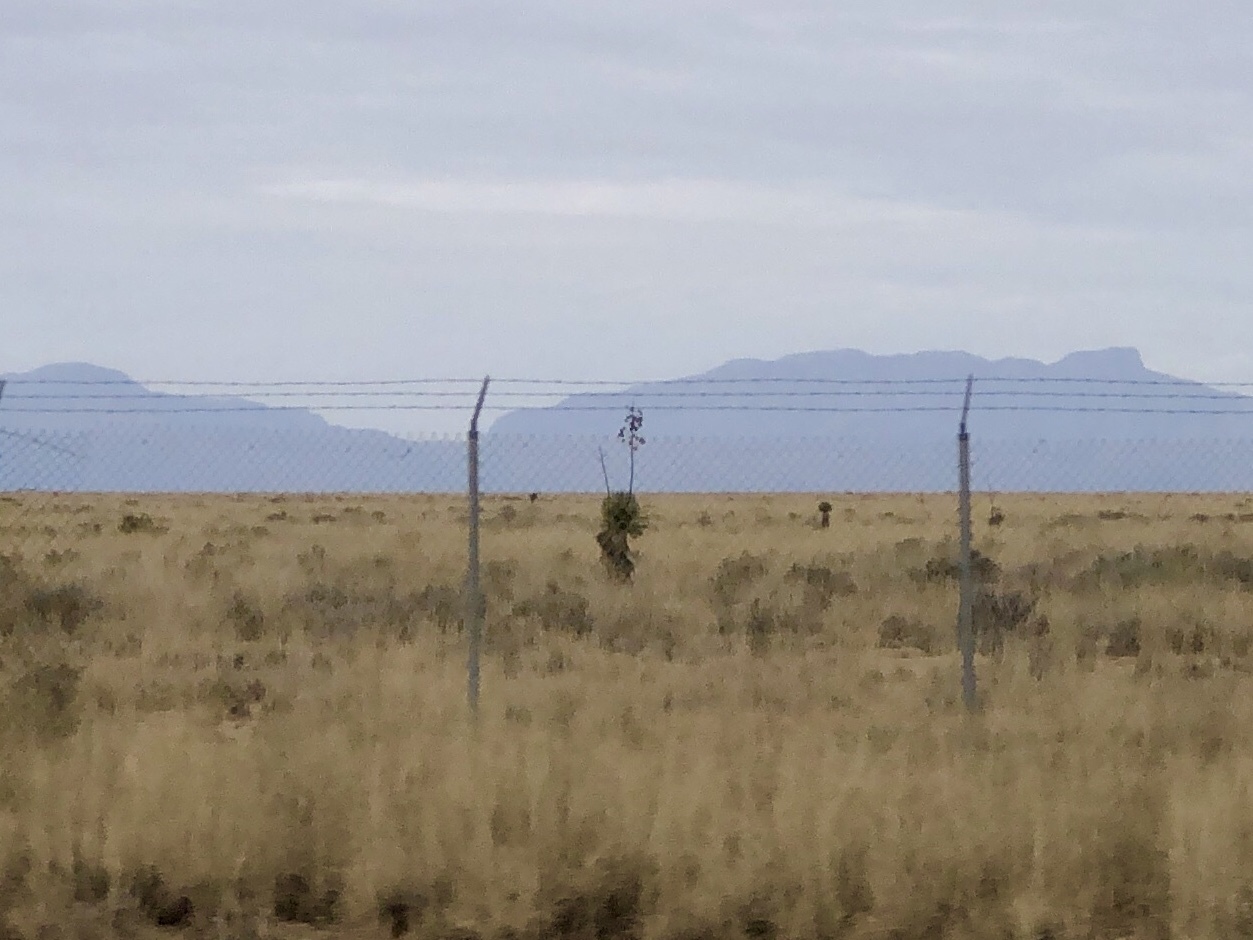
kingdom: Plantae
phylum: Tracheophyta
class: Liliopsida
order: Asparagales
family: Asparagaceae
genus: Yucca
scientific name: Yucca elata
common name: Palmella
